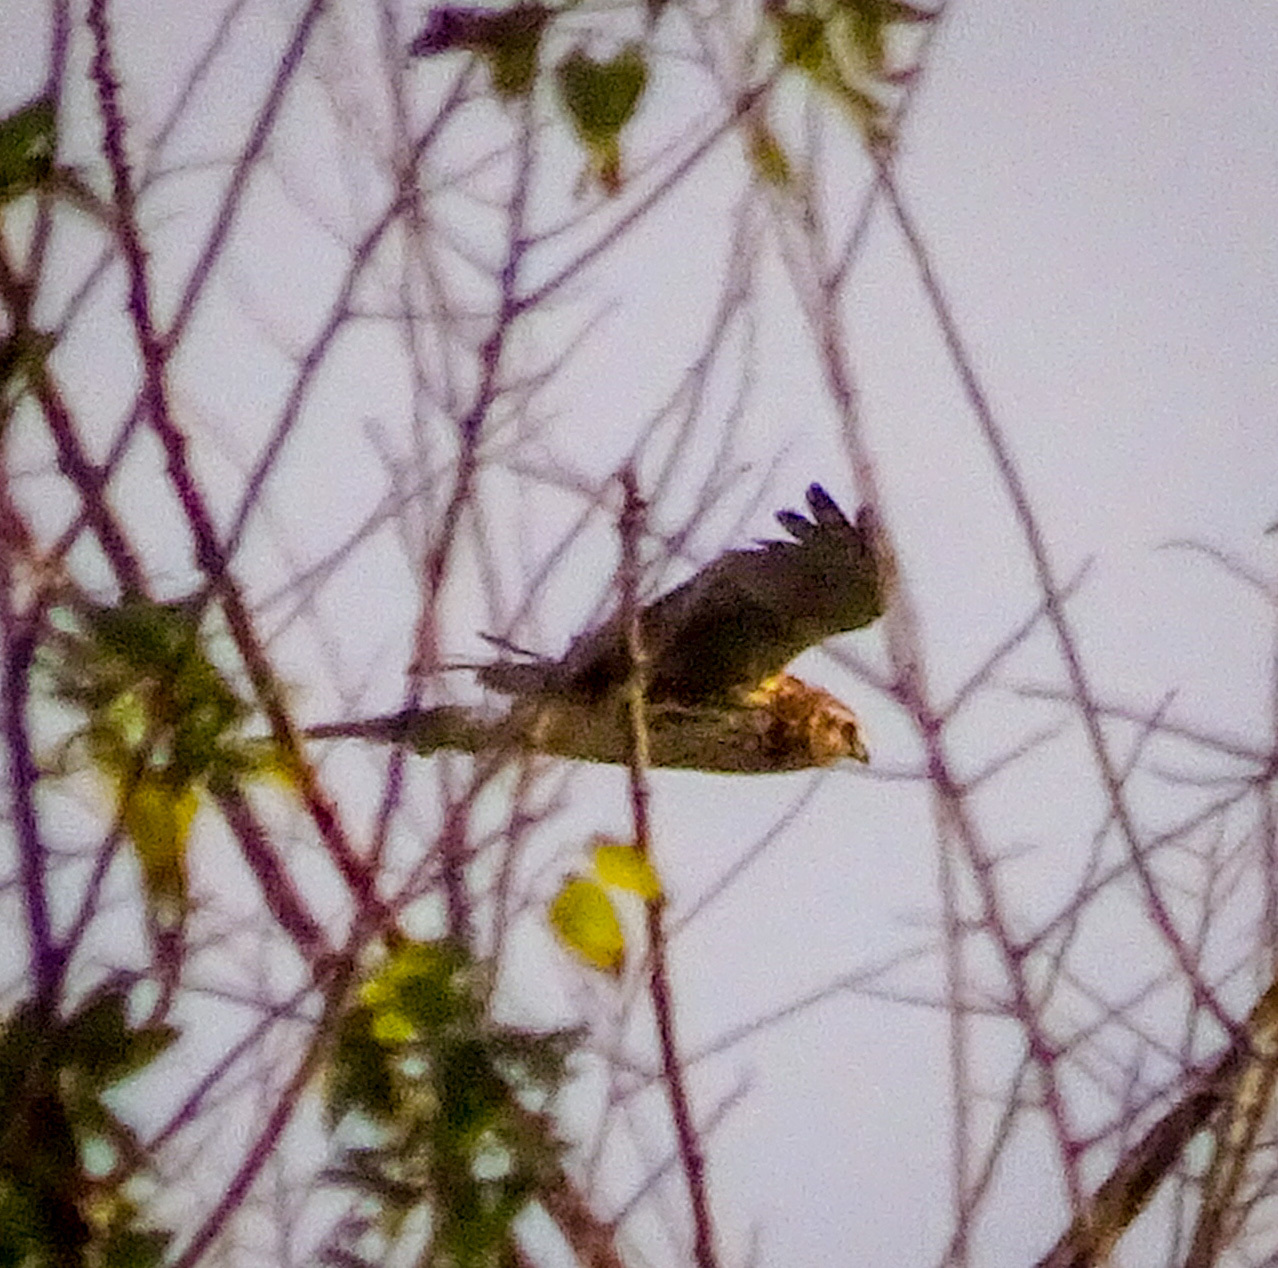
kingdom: Animalia
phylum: Chordata
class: Aves
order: Accipitriformes
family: Accipitridae
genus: Circus
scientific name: Circus cyaneus
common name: Hen harrier
